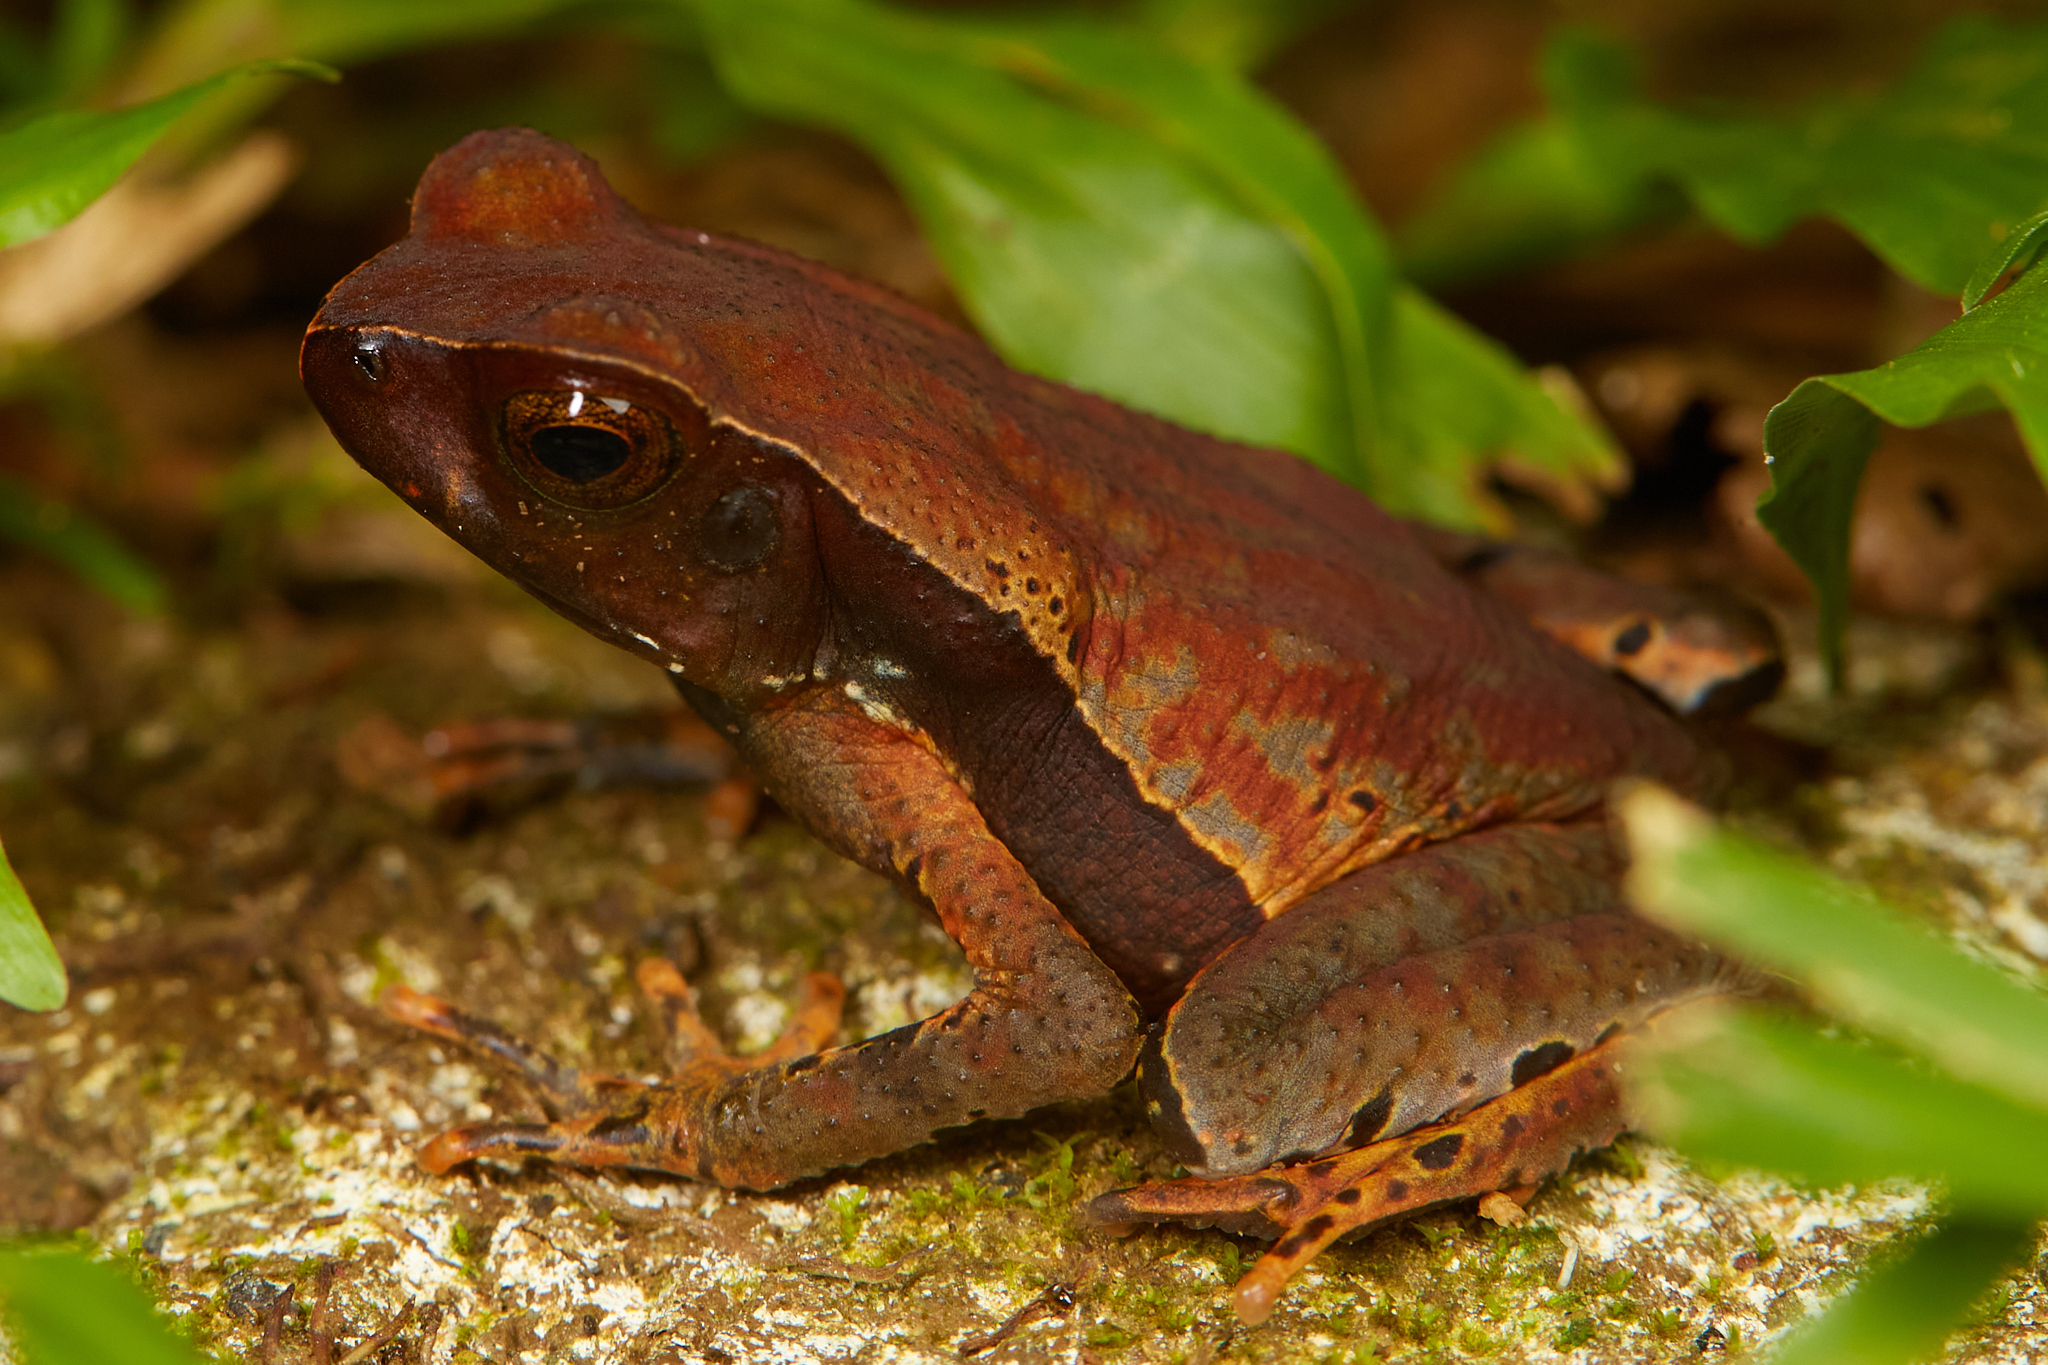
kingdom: Animalia
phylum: Chordata
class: Amphibia
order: Anura
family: Bufonidae
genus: Rhaebo
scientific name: Rhaebo haematiticus
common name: Truando toad
